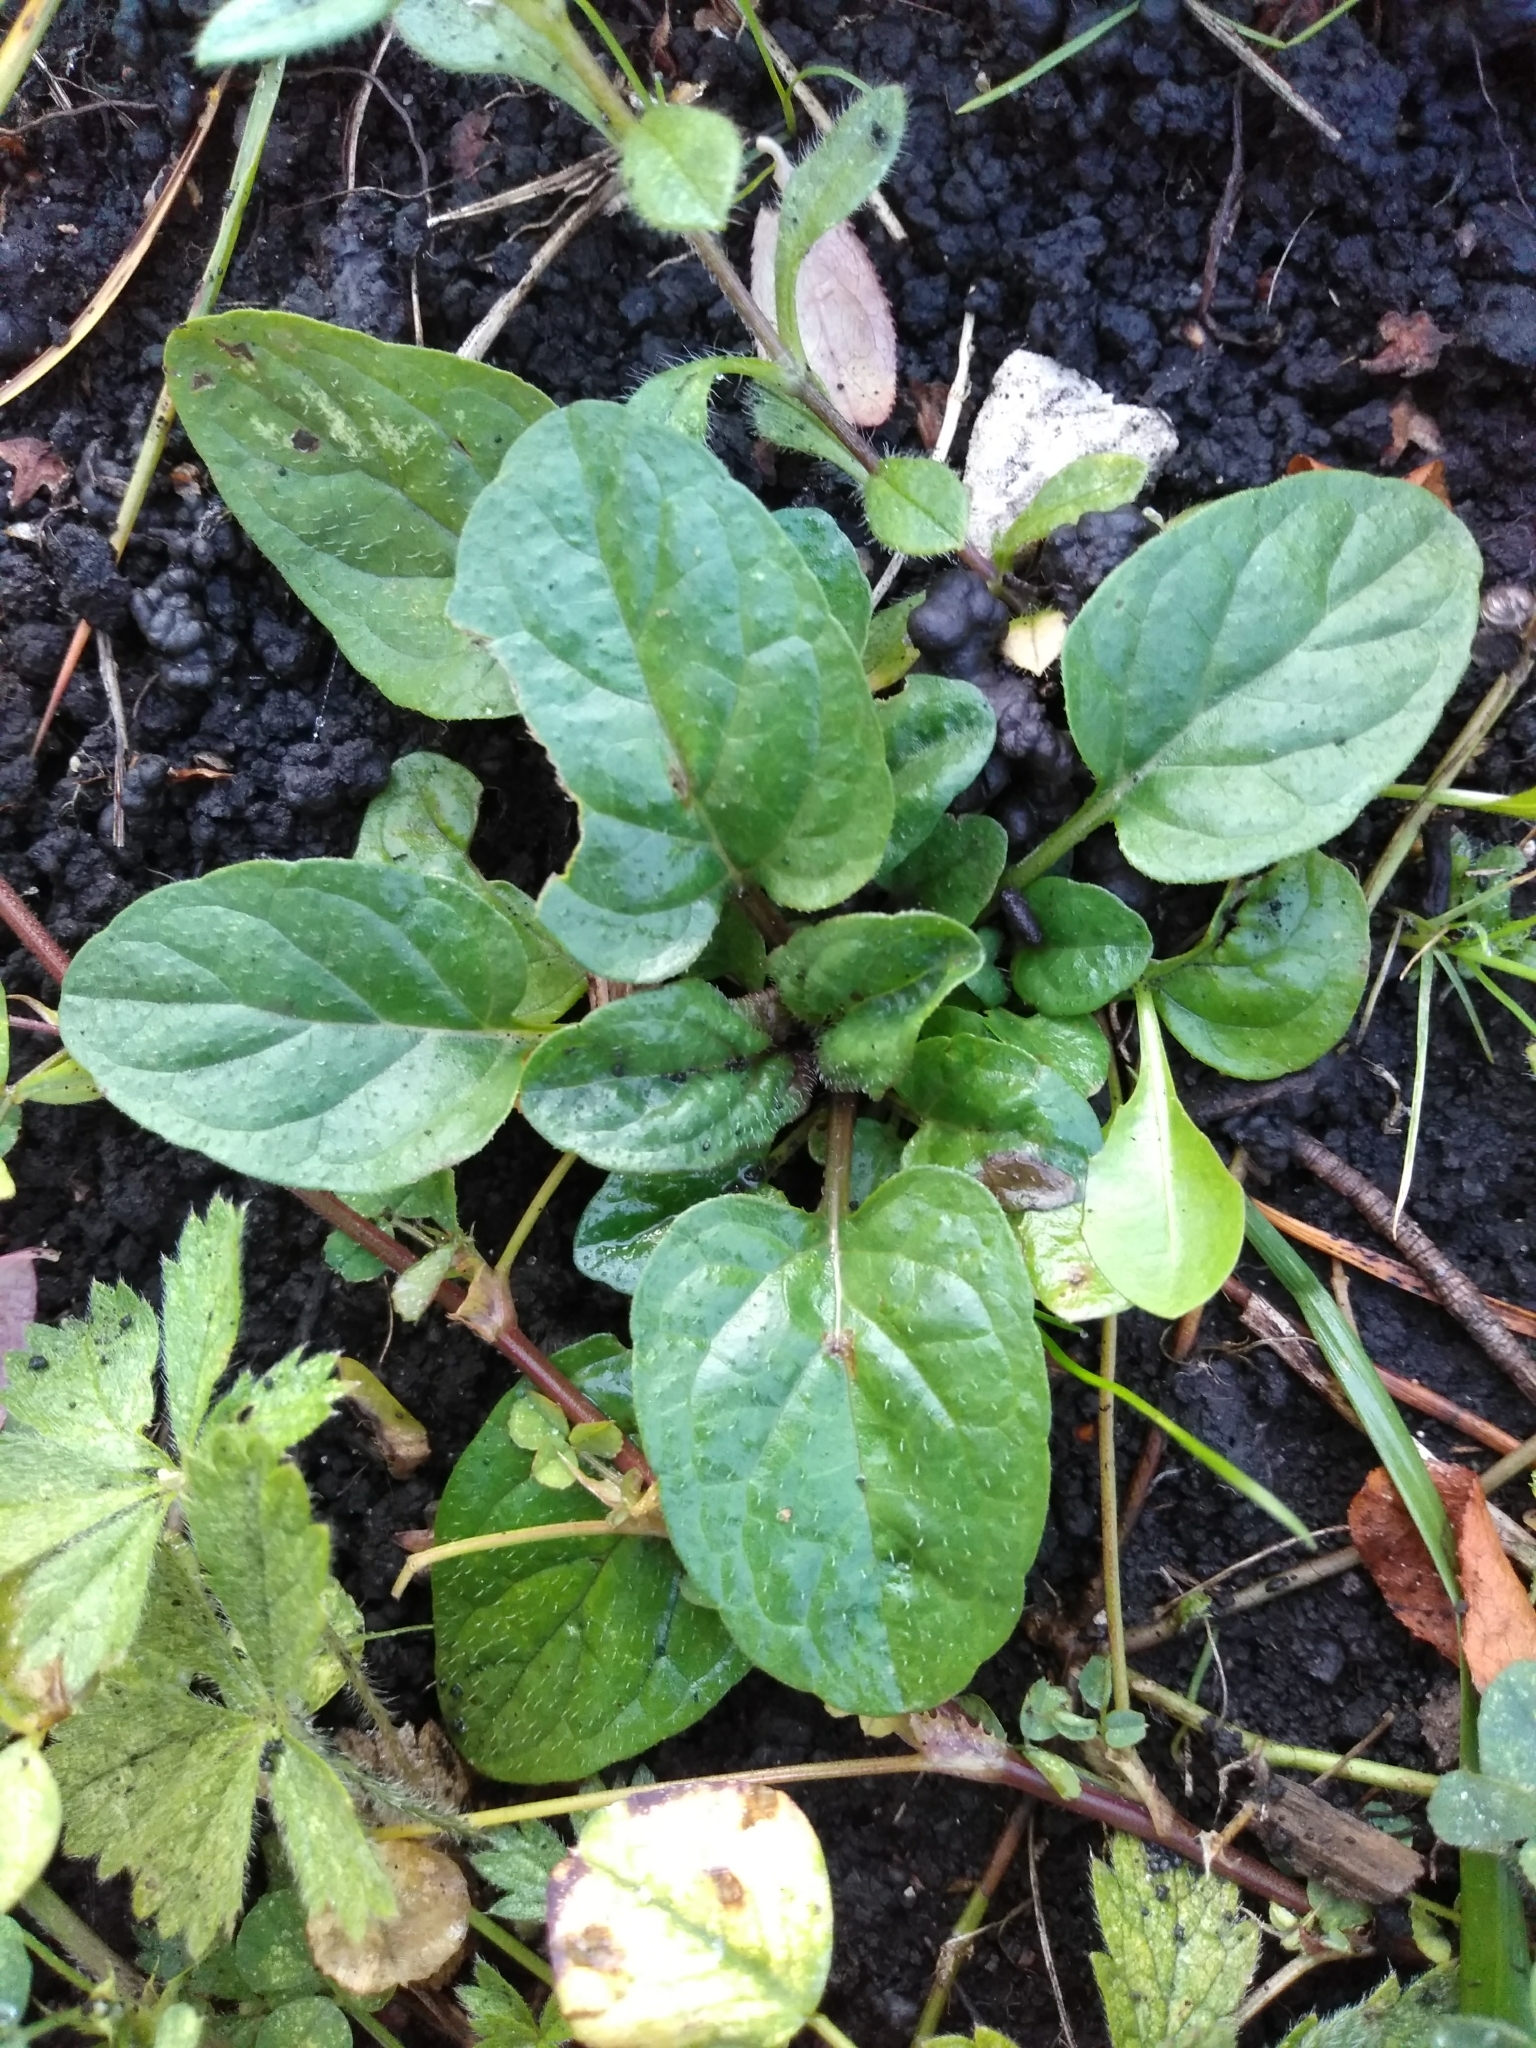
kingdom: Plantae
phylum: Tracheophyta
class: Magnoliopsida
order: Lamiales
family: Lamiaceae
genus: Prunella
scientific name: Prunella vulgaris
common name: Heal-all
